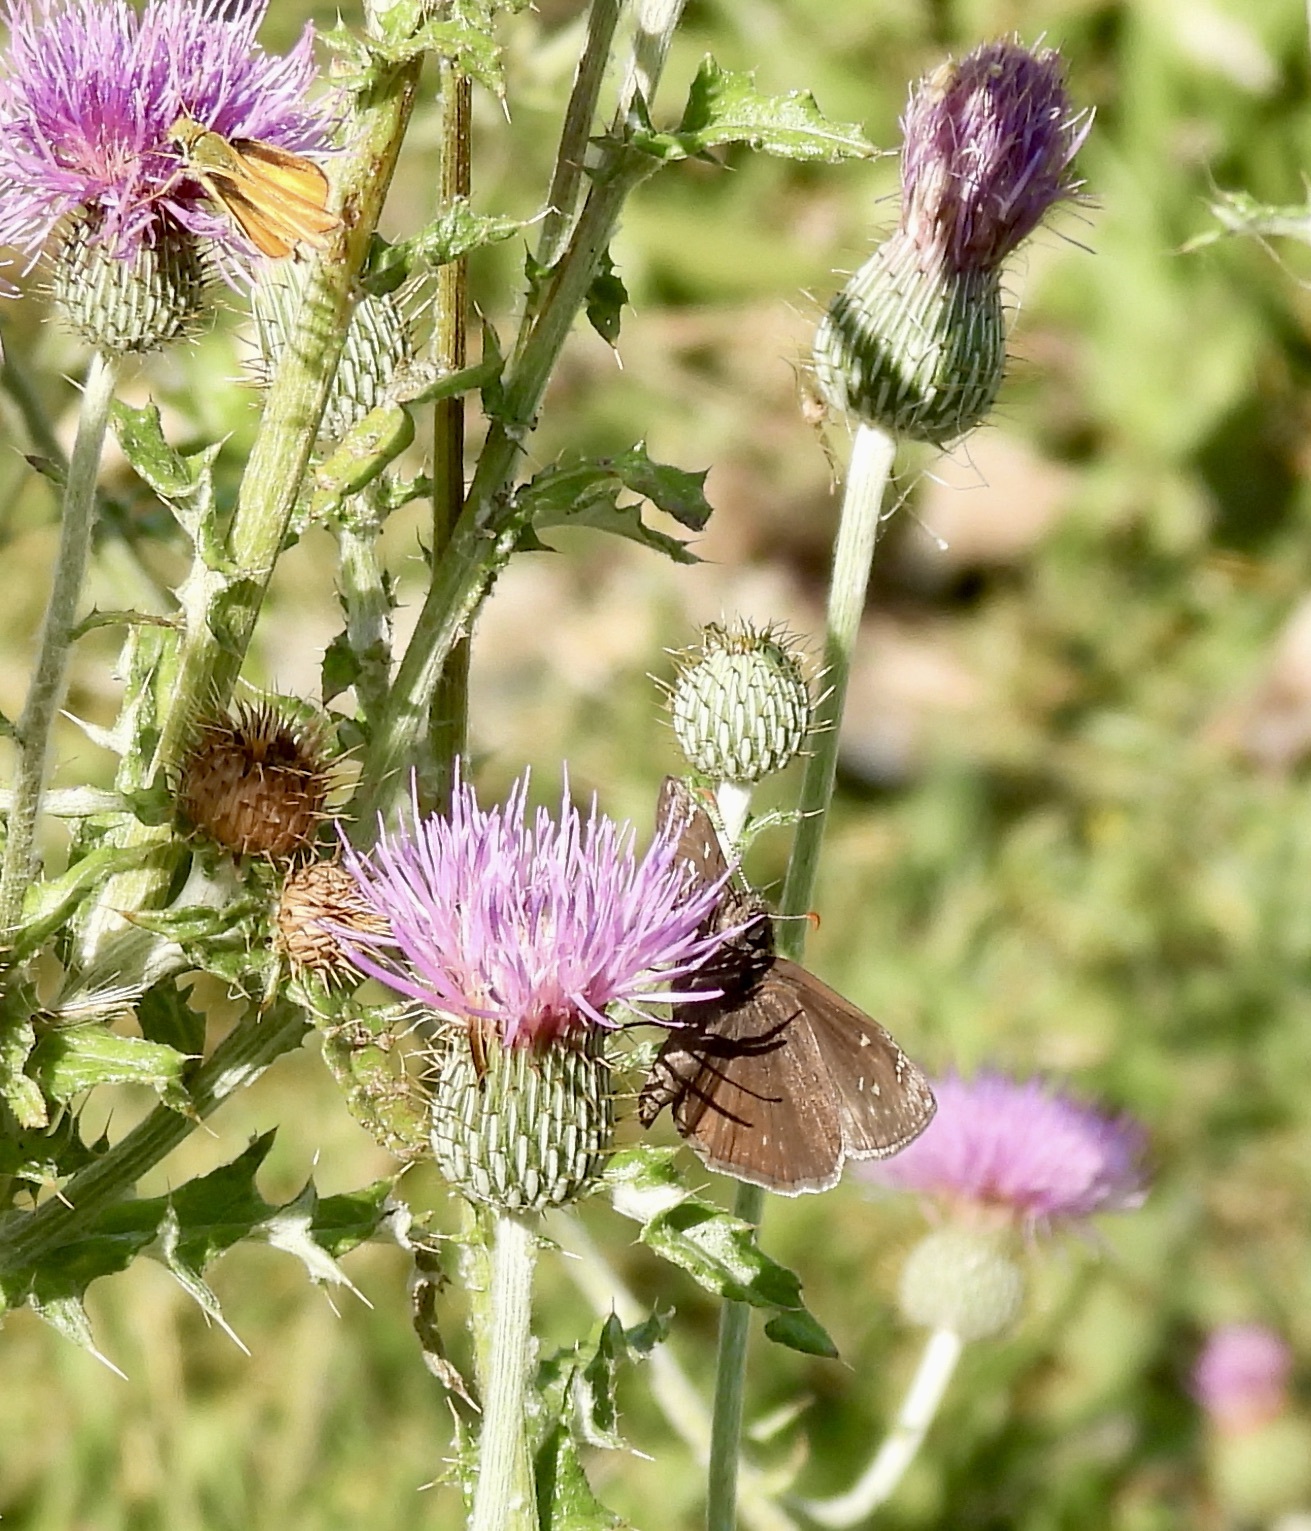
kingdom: Animalia
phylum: Arthropoda
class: Insecta
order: Lepidoptera
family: Hesperiidae
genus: Erynnis
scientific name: Erynnis meridianus
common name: Meridian duskywing
